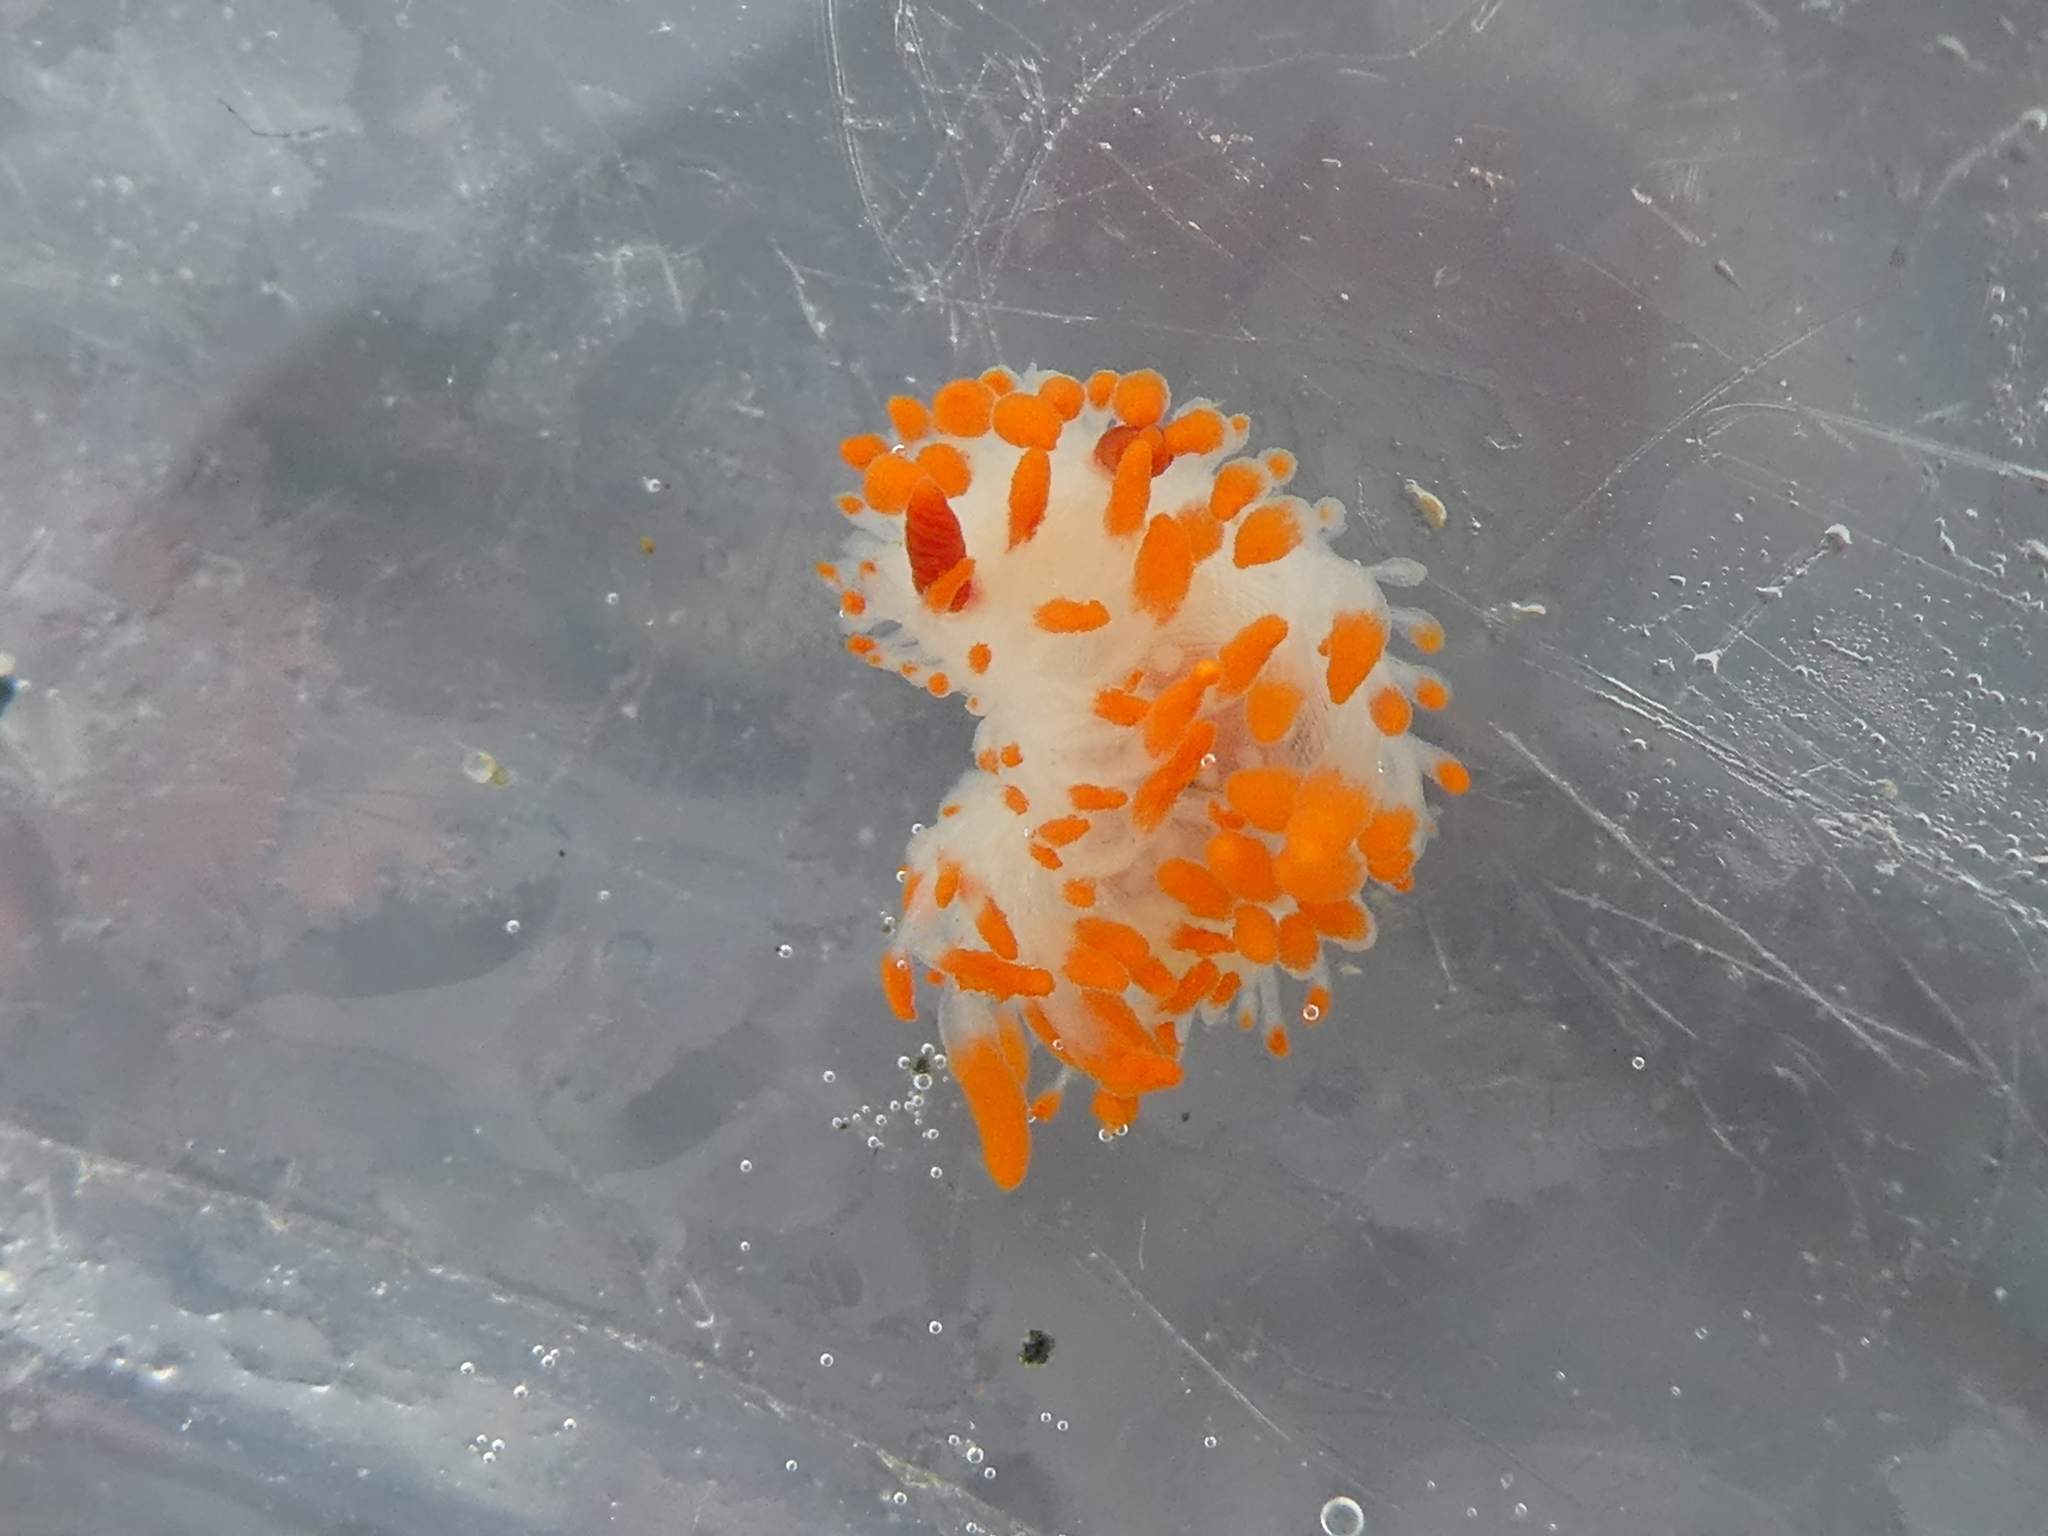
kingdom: Animalia
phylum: Mollusca
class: Gastropoda
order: Nudibranchia
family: Polyceridae
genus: Limacia
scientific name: Limacia cockerelli
